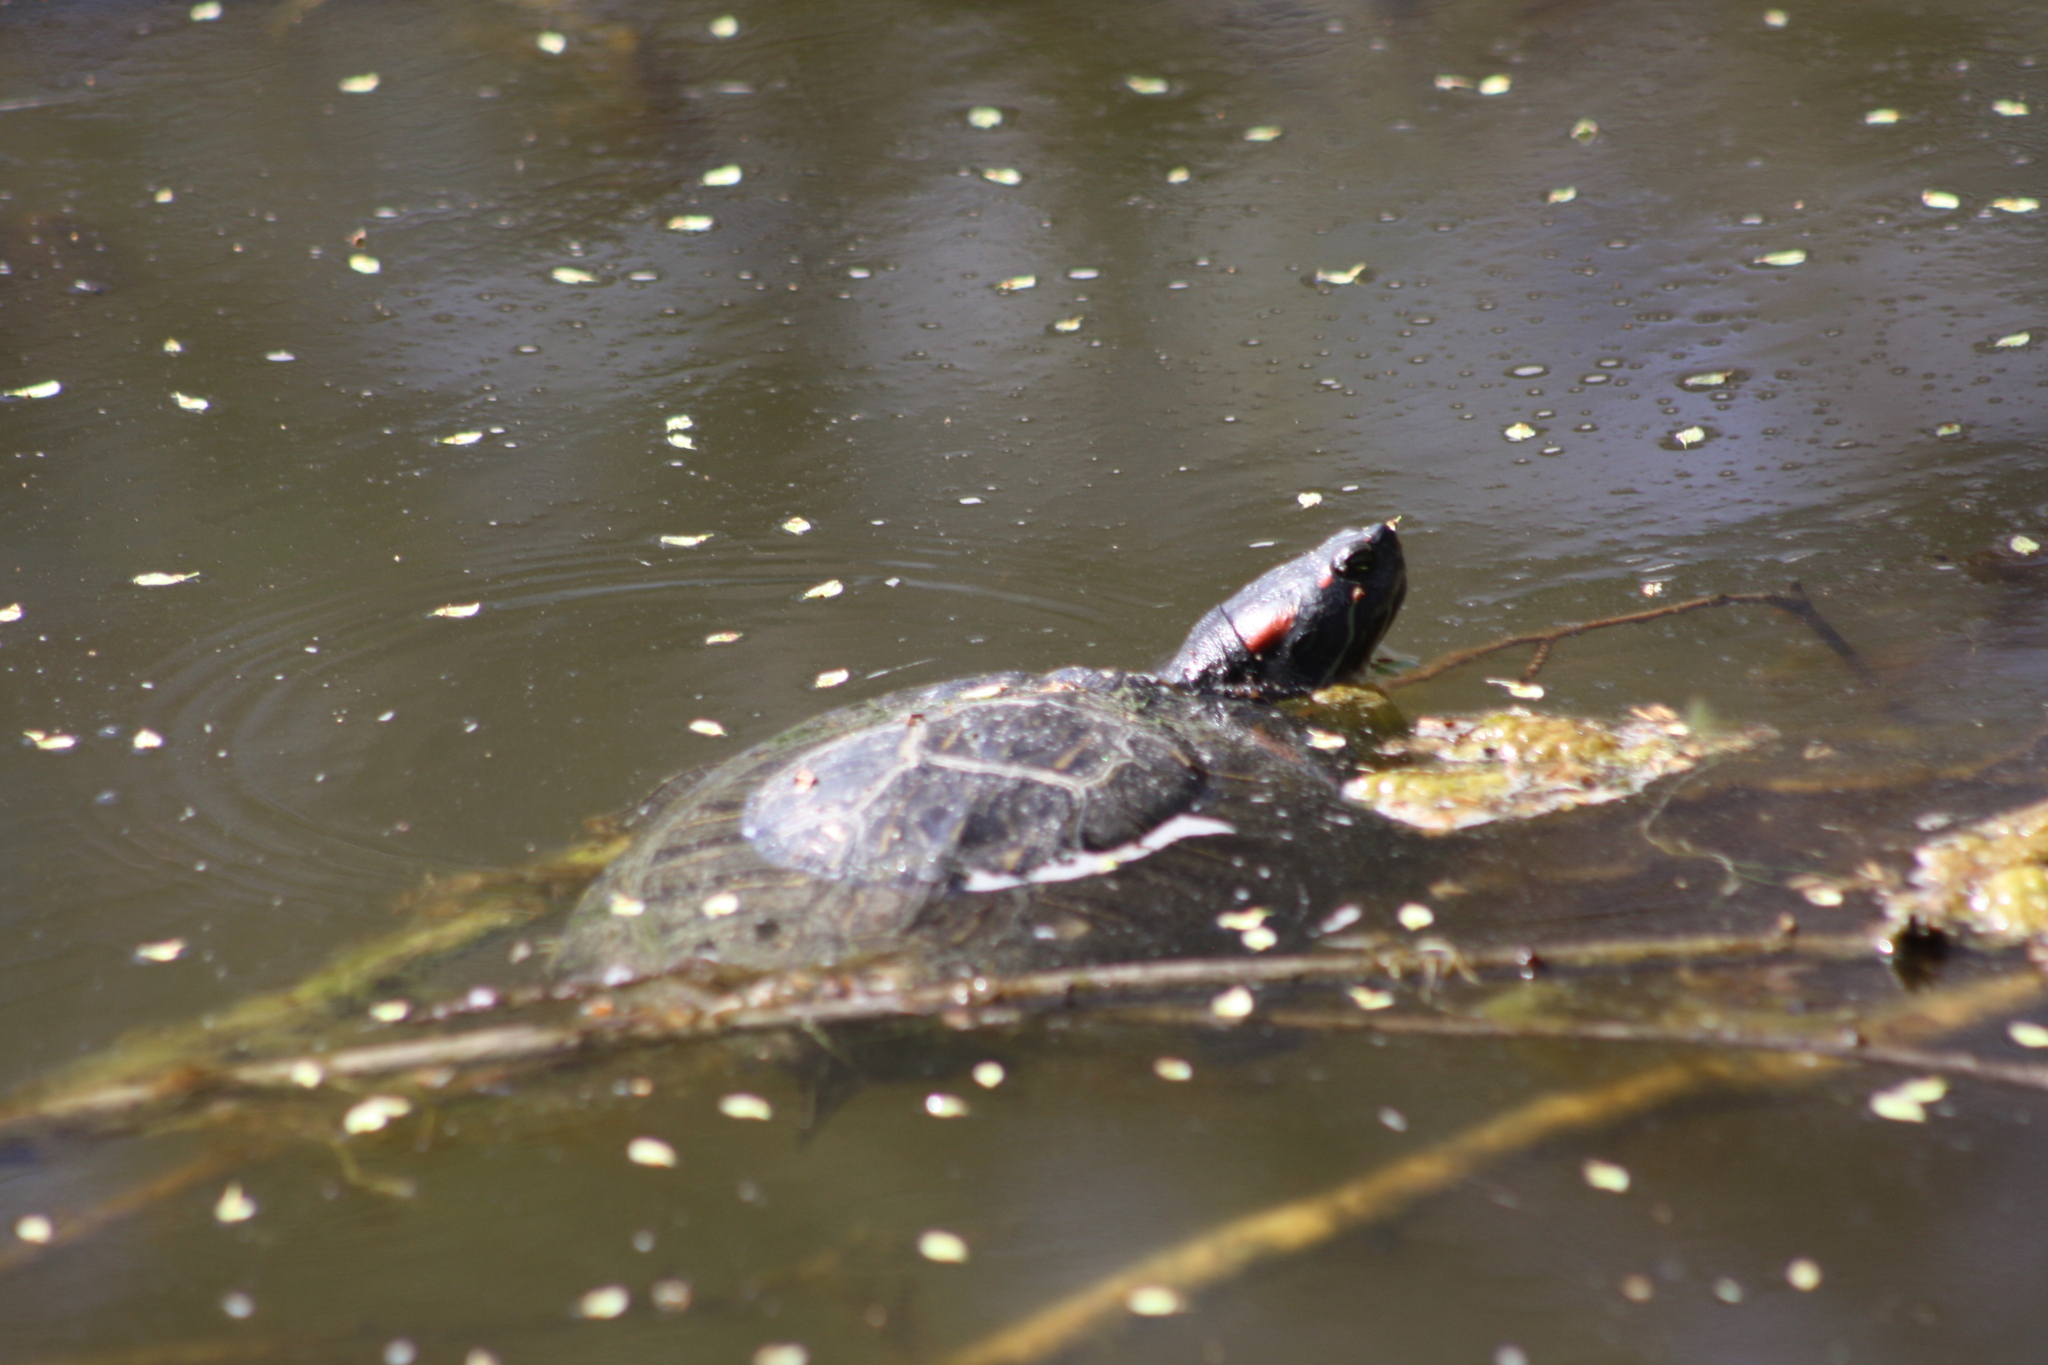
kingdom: Animalia
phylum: Chordata
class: Testudines
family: Emydidae
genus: Trachemys
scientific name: Trachemys scripta
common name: Slider
